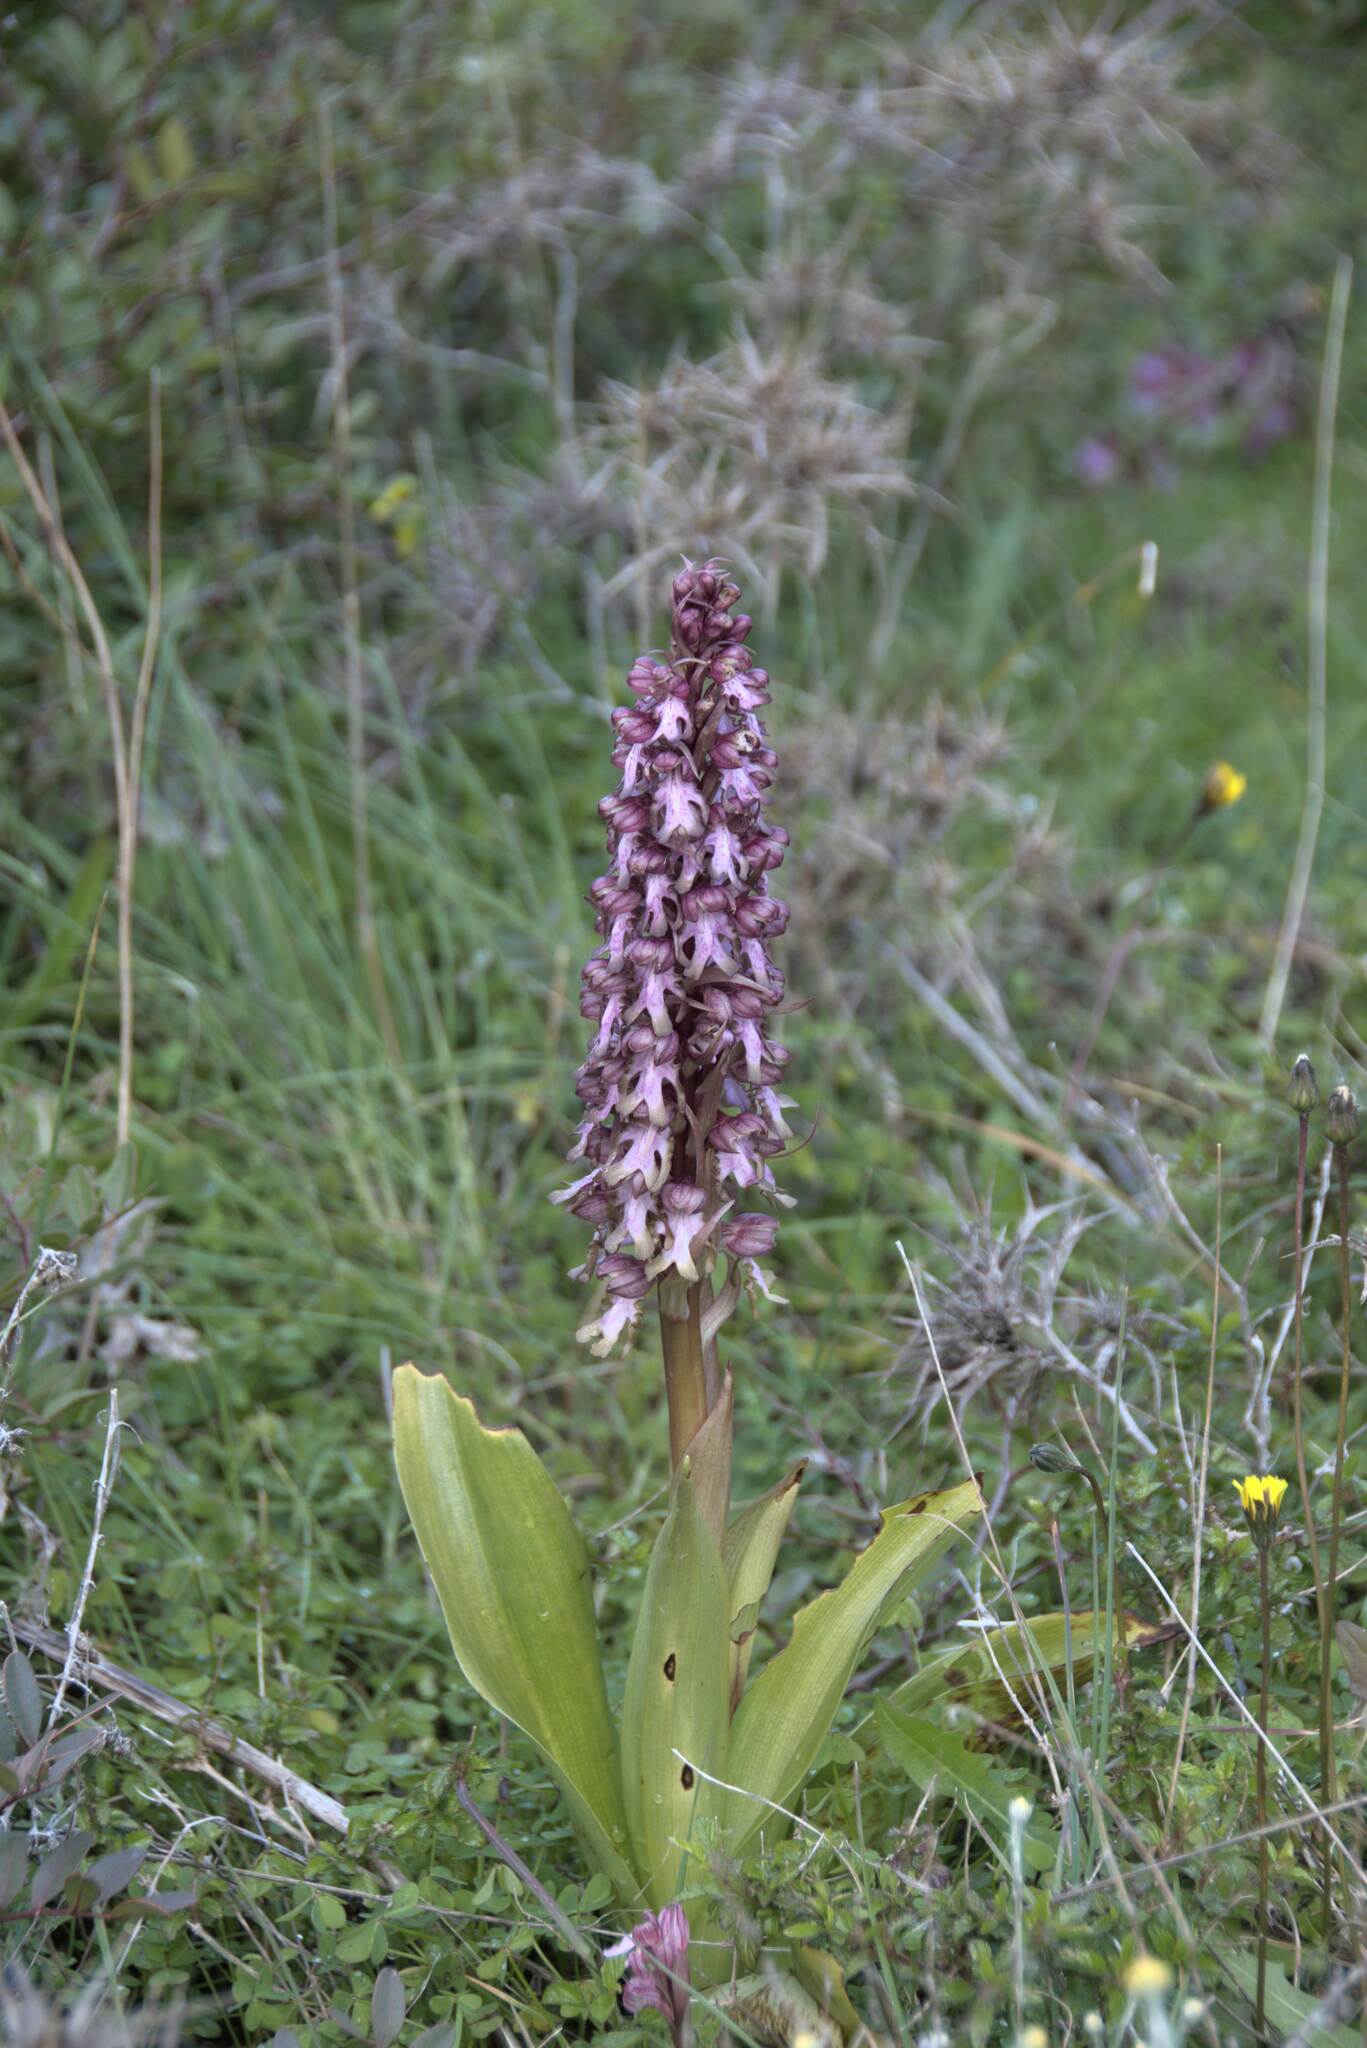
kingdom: Plantae
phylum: Tracheophyta
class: Liliopsida
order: Asparagales
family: Orchidaceae
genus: Himantoglossum
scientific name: Himantoglossum robertianum
